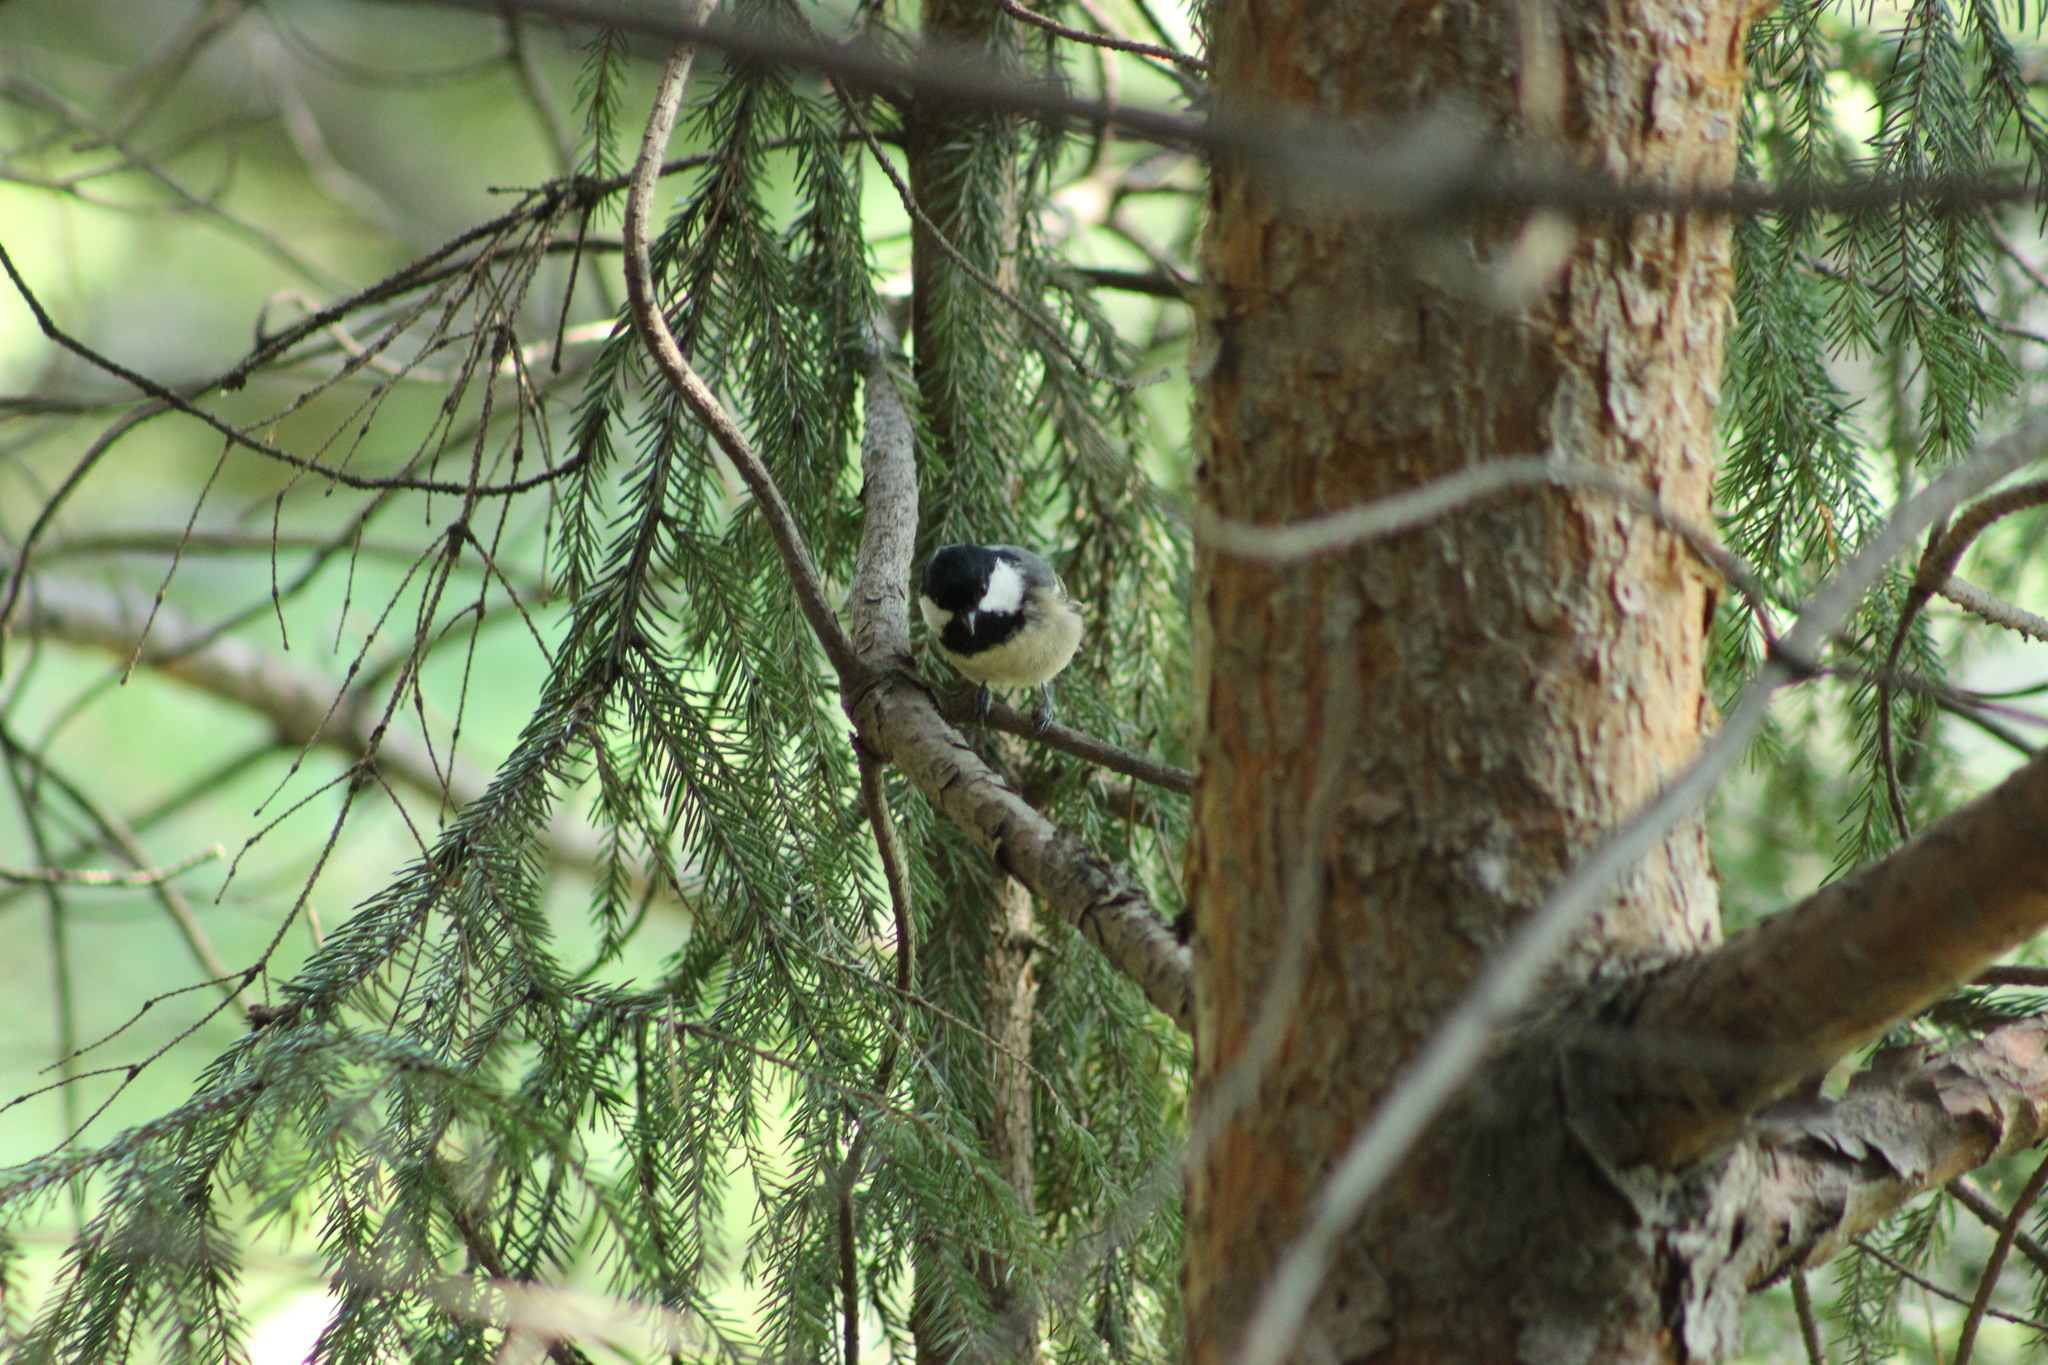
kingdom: Animalia
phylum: Chordata
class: Aves
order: Passeriformes
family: Paridae
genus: Periparus
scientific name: Periparus ater
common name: Coal tit
